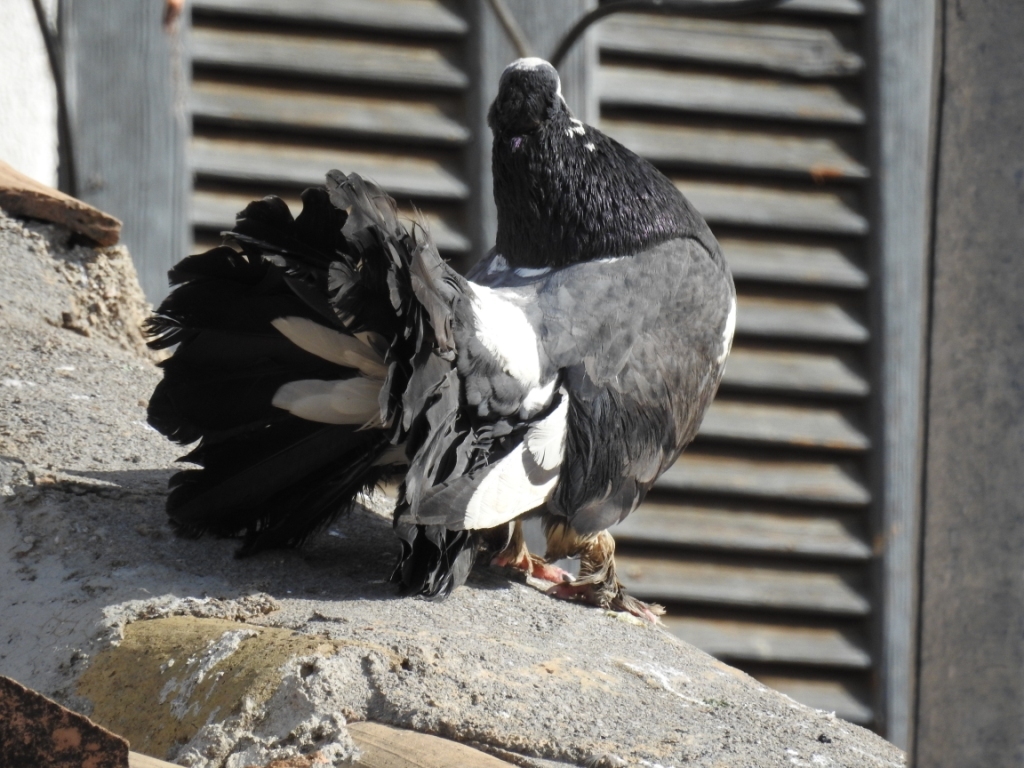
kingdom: Animalia
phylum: Chordata
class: Aves
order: Columbiformes
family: Columbidae
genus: Columba
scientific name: Columba livia
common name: Rock pigeon
